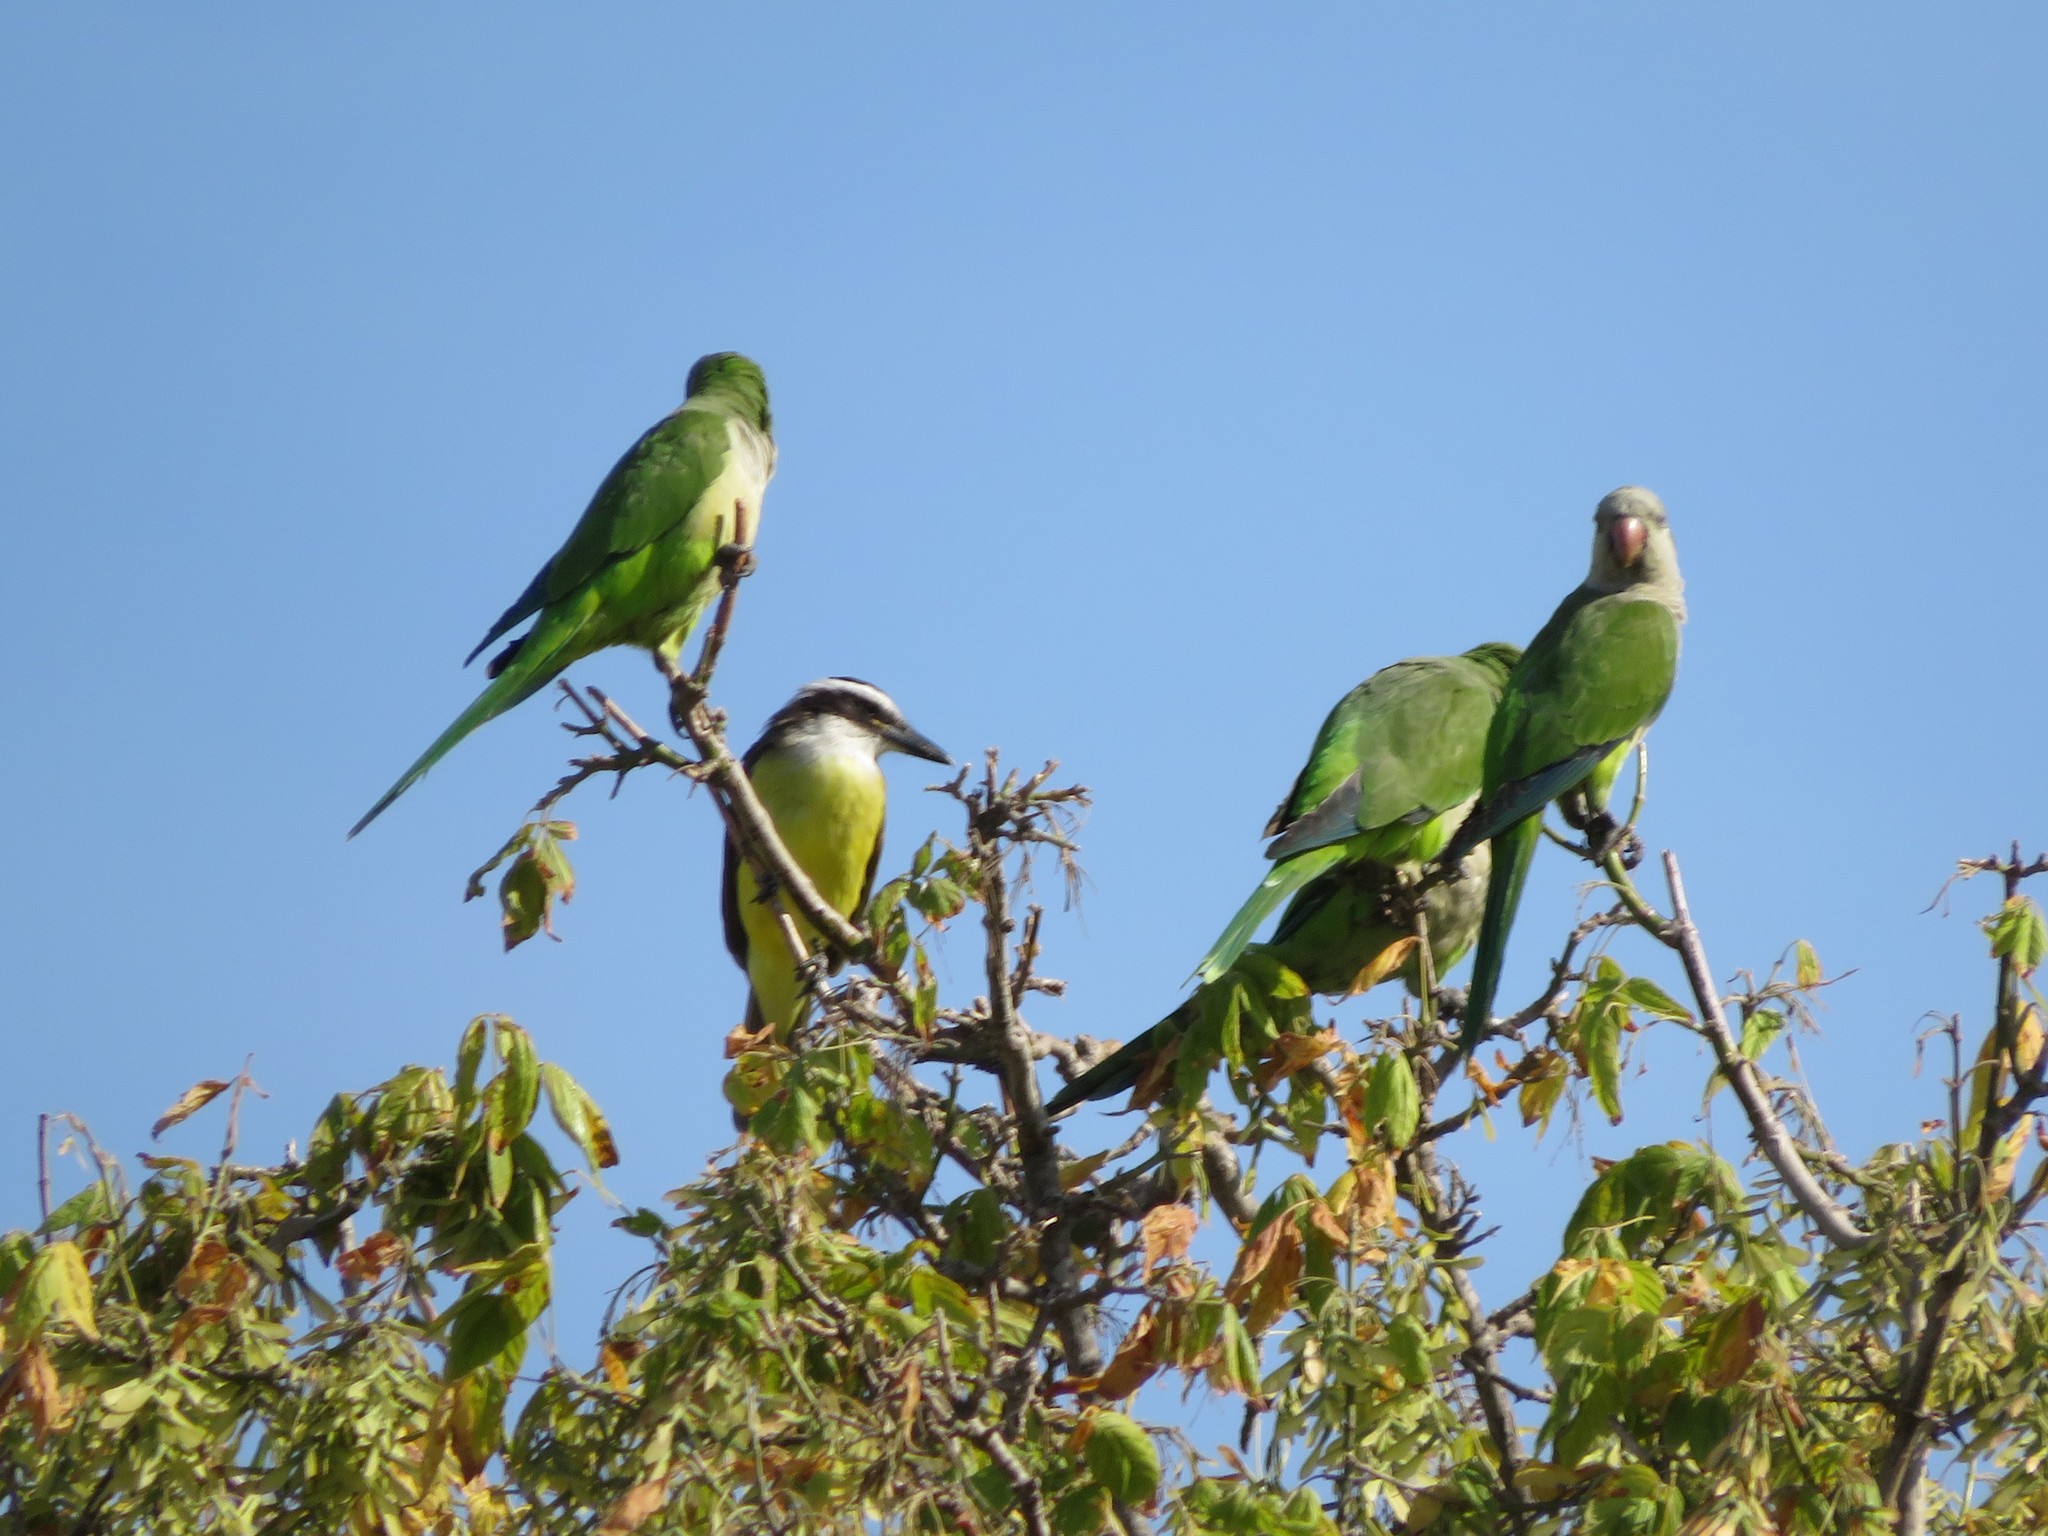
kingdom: Animalia
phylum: Chordata
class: Aves
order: Passeriformes
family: Tyrannidae
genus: Pitangus
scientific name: Pitangus sulphuratus
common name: Great kiskadee
